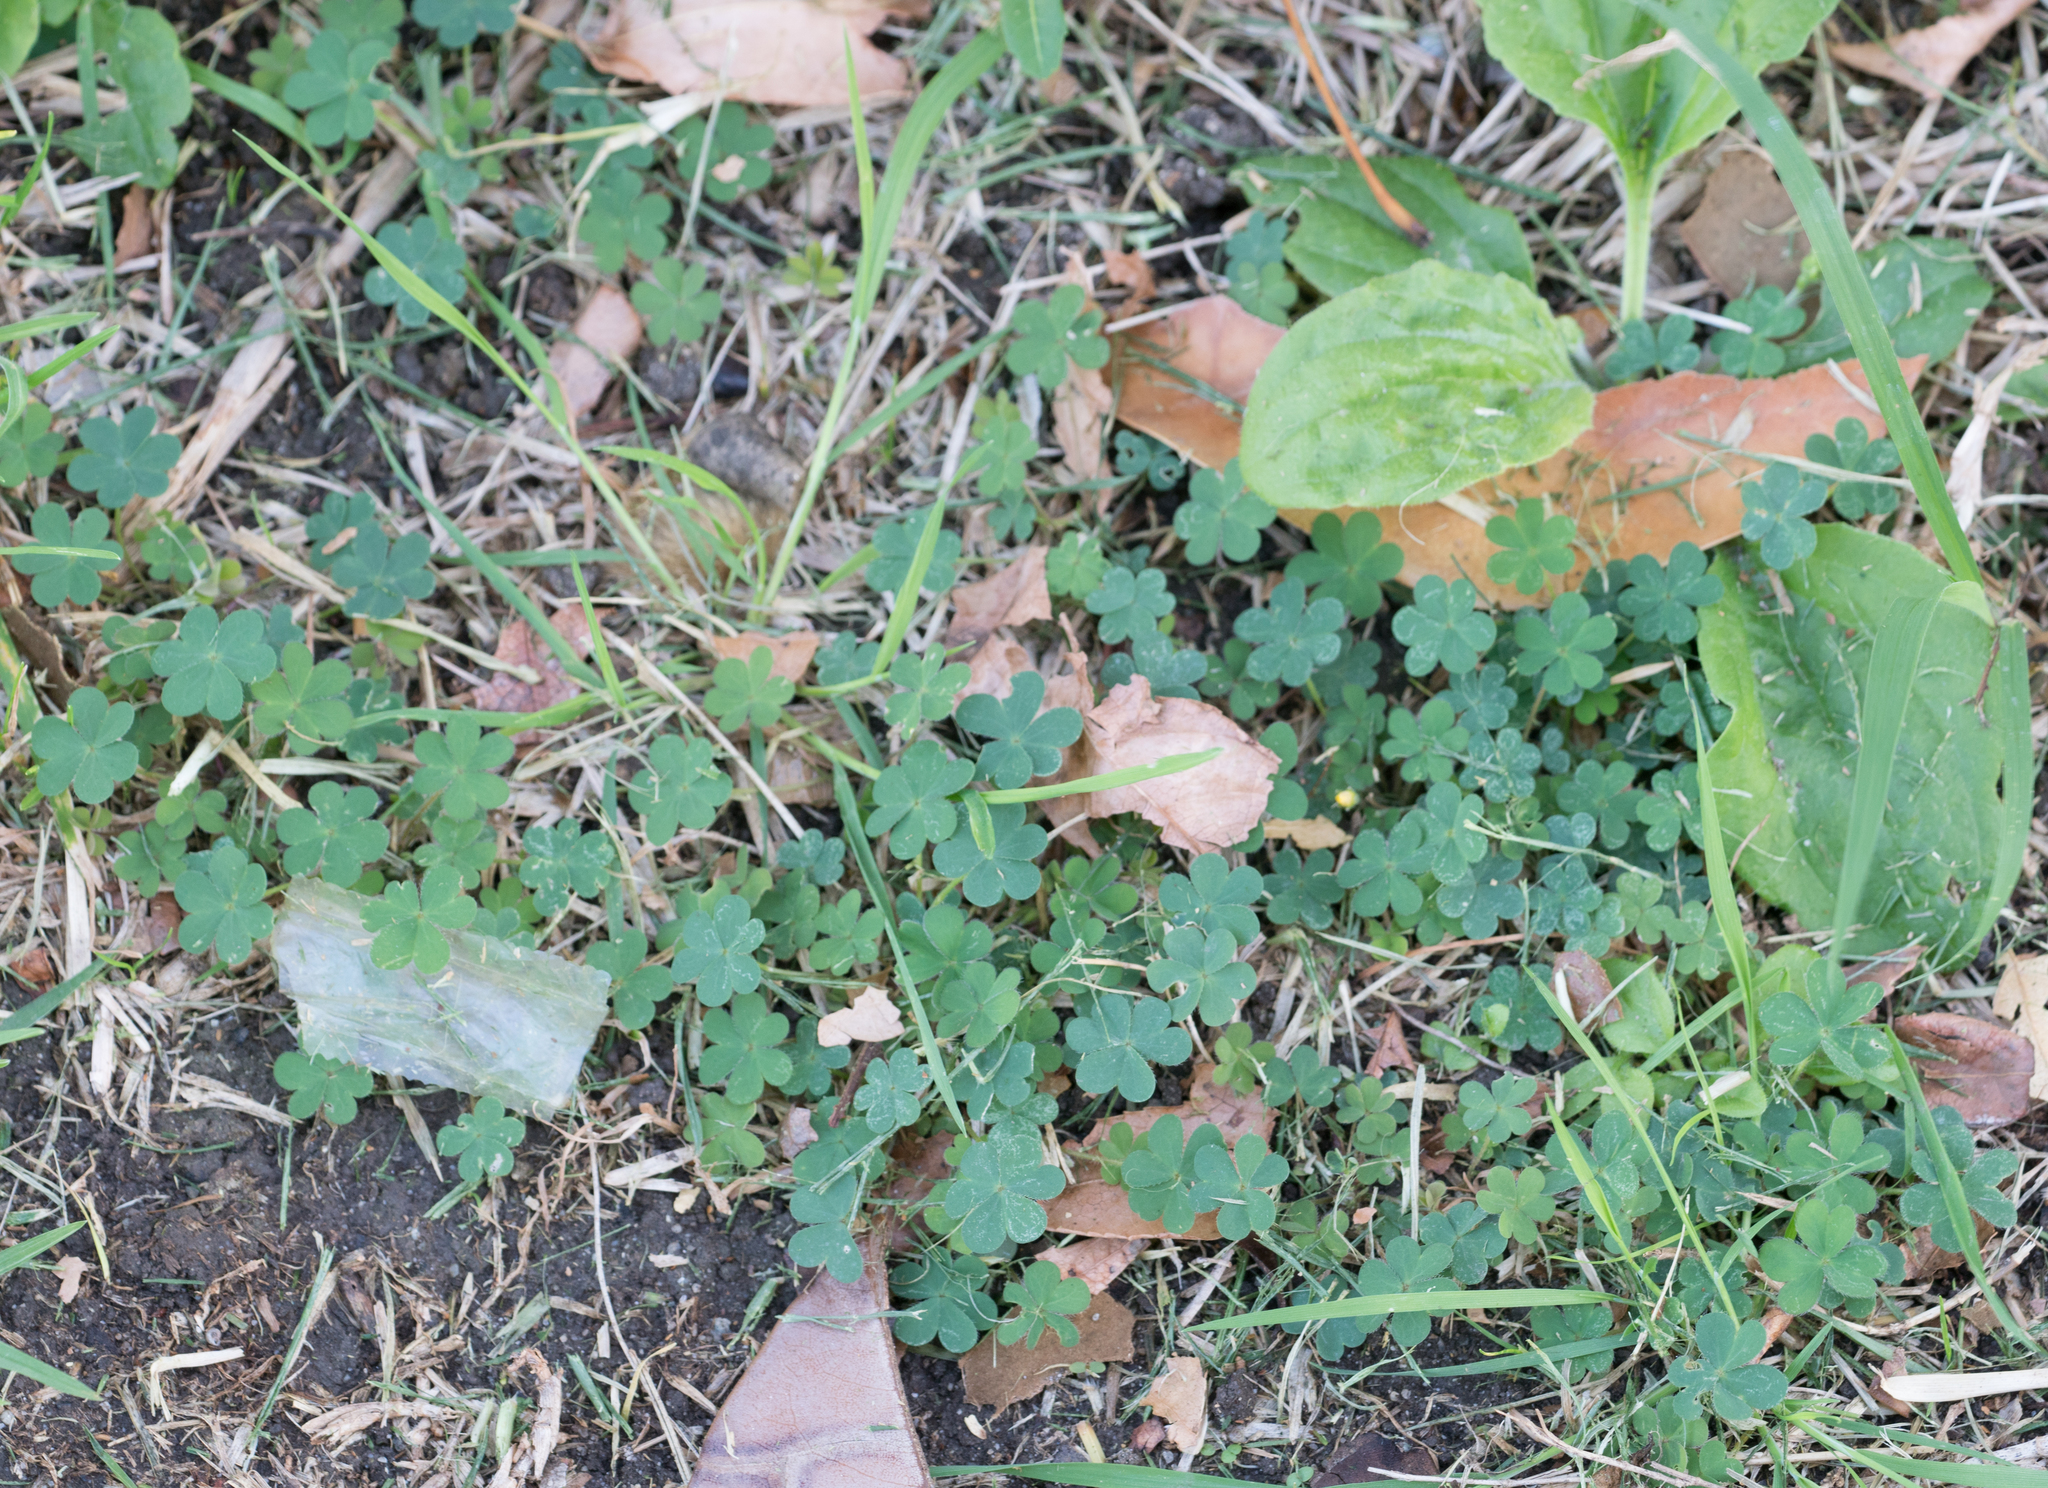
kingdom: Plantae
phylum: Tracheophyta
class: Magnoliopsida
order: Oxalidales
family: Oxalidaceae
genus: Oxalis
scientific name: Oxalis corniculata
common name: Procumbent yellow-sorrel
